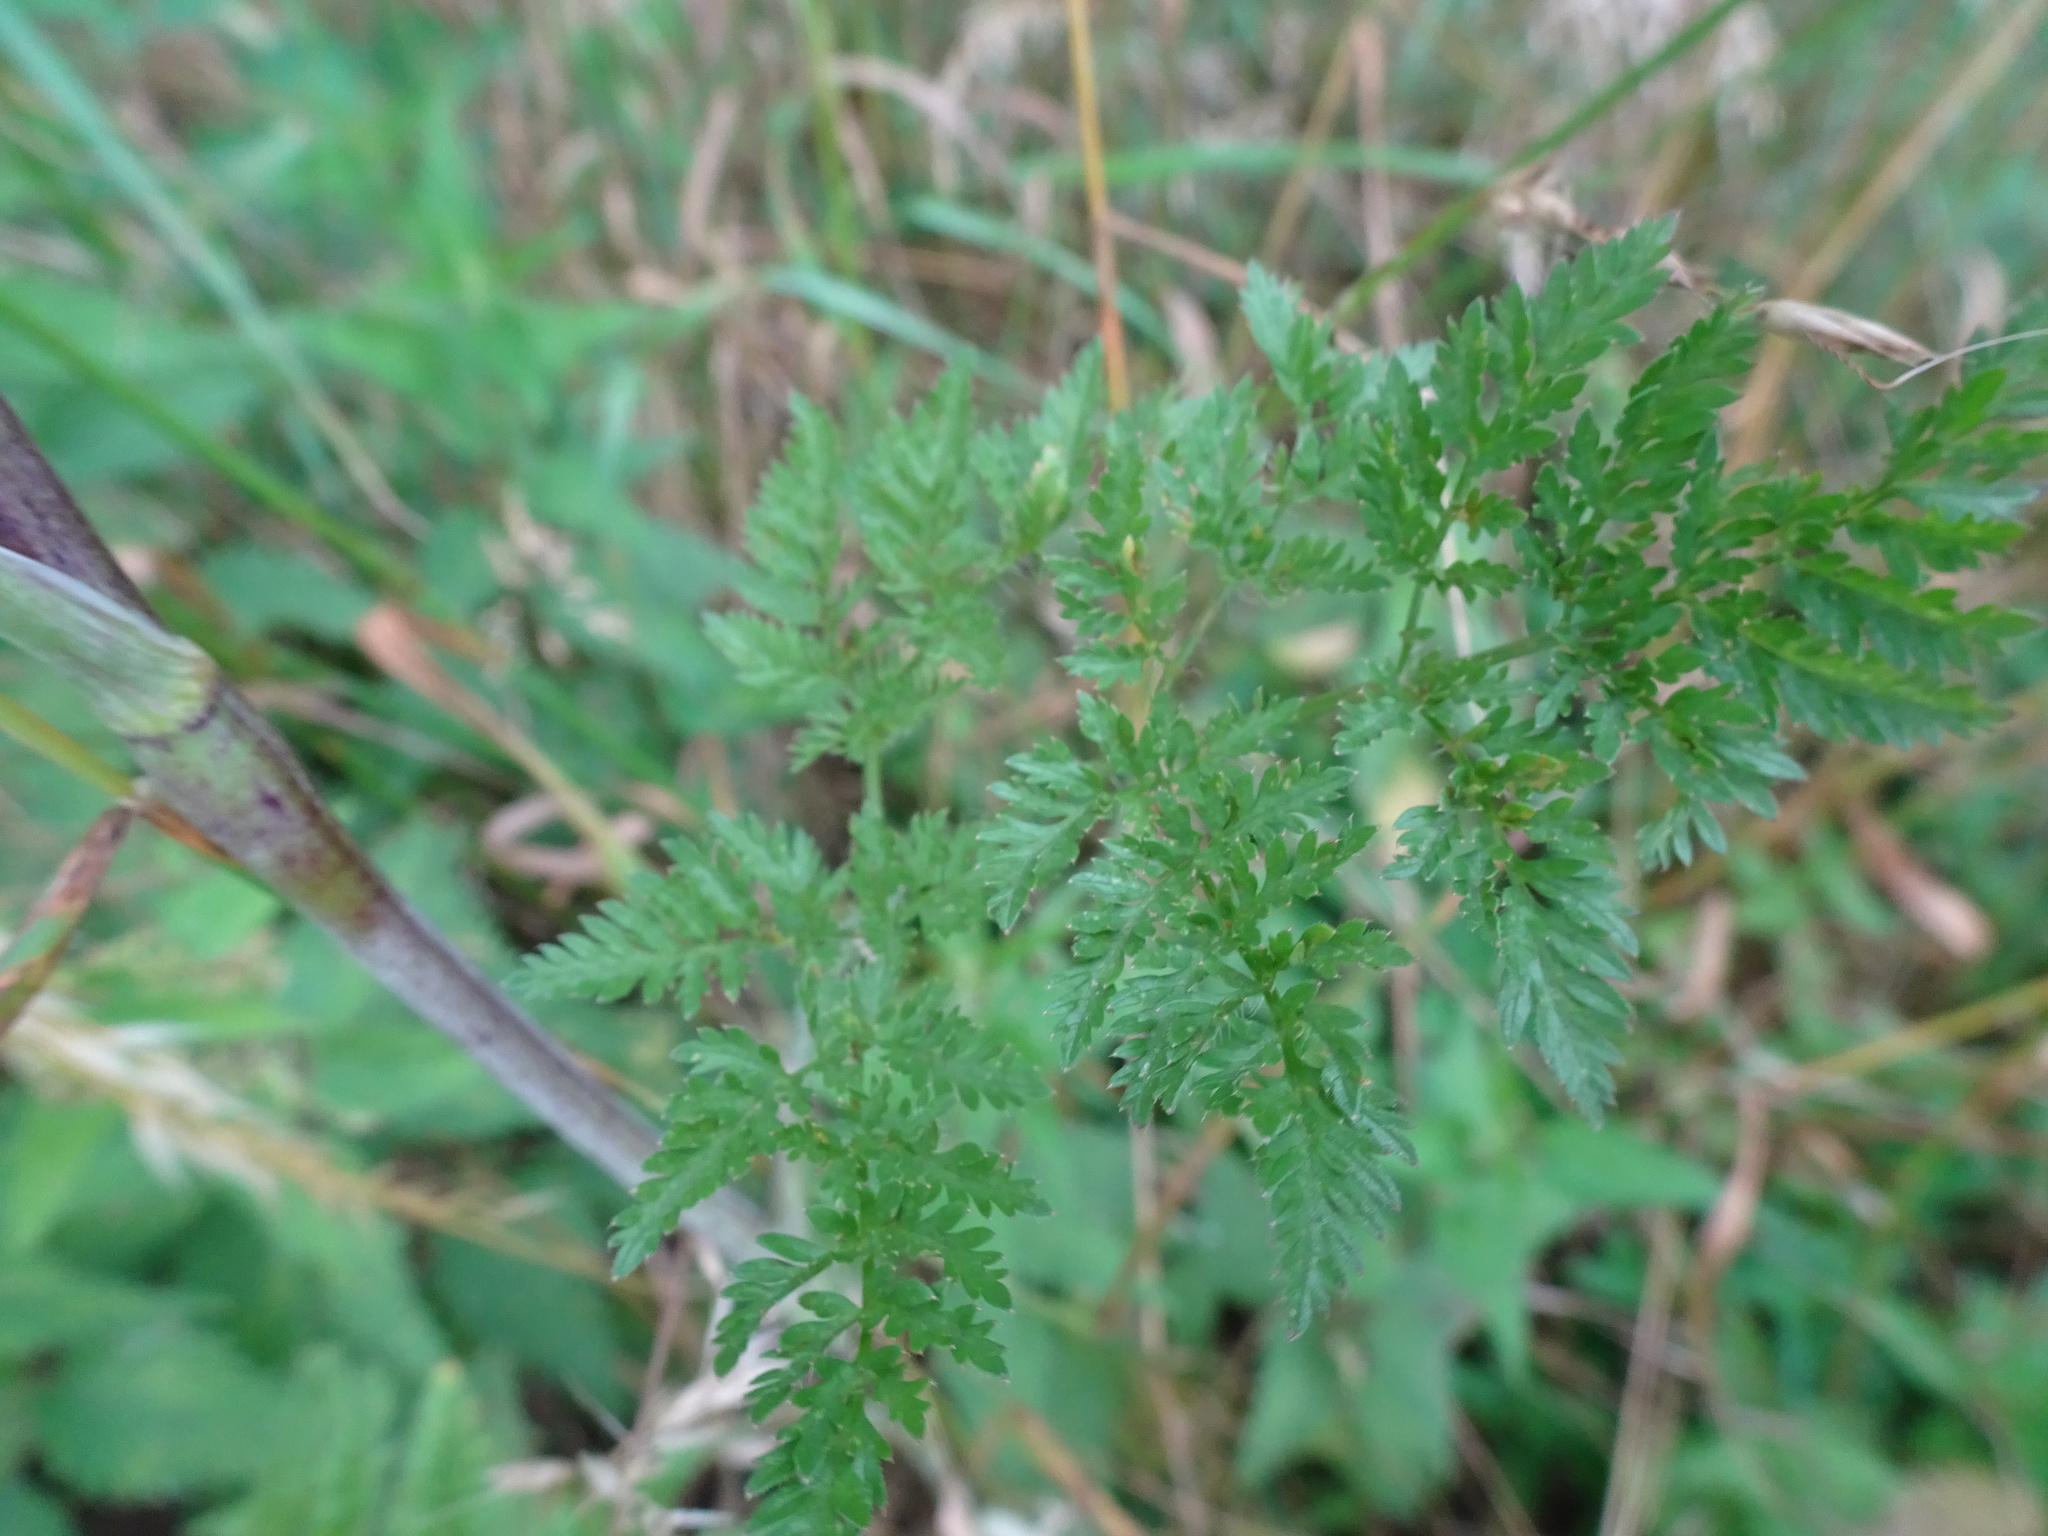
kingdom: Plantae
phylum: Tracheophyta
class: Magnoliopsida
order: Apiales
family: Apiaceae
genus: Chaerophyllum
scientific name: Chaerophyllum bulbosum
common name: Bulbous chervil
